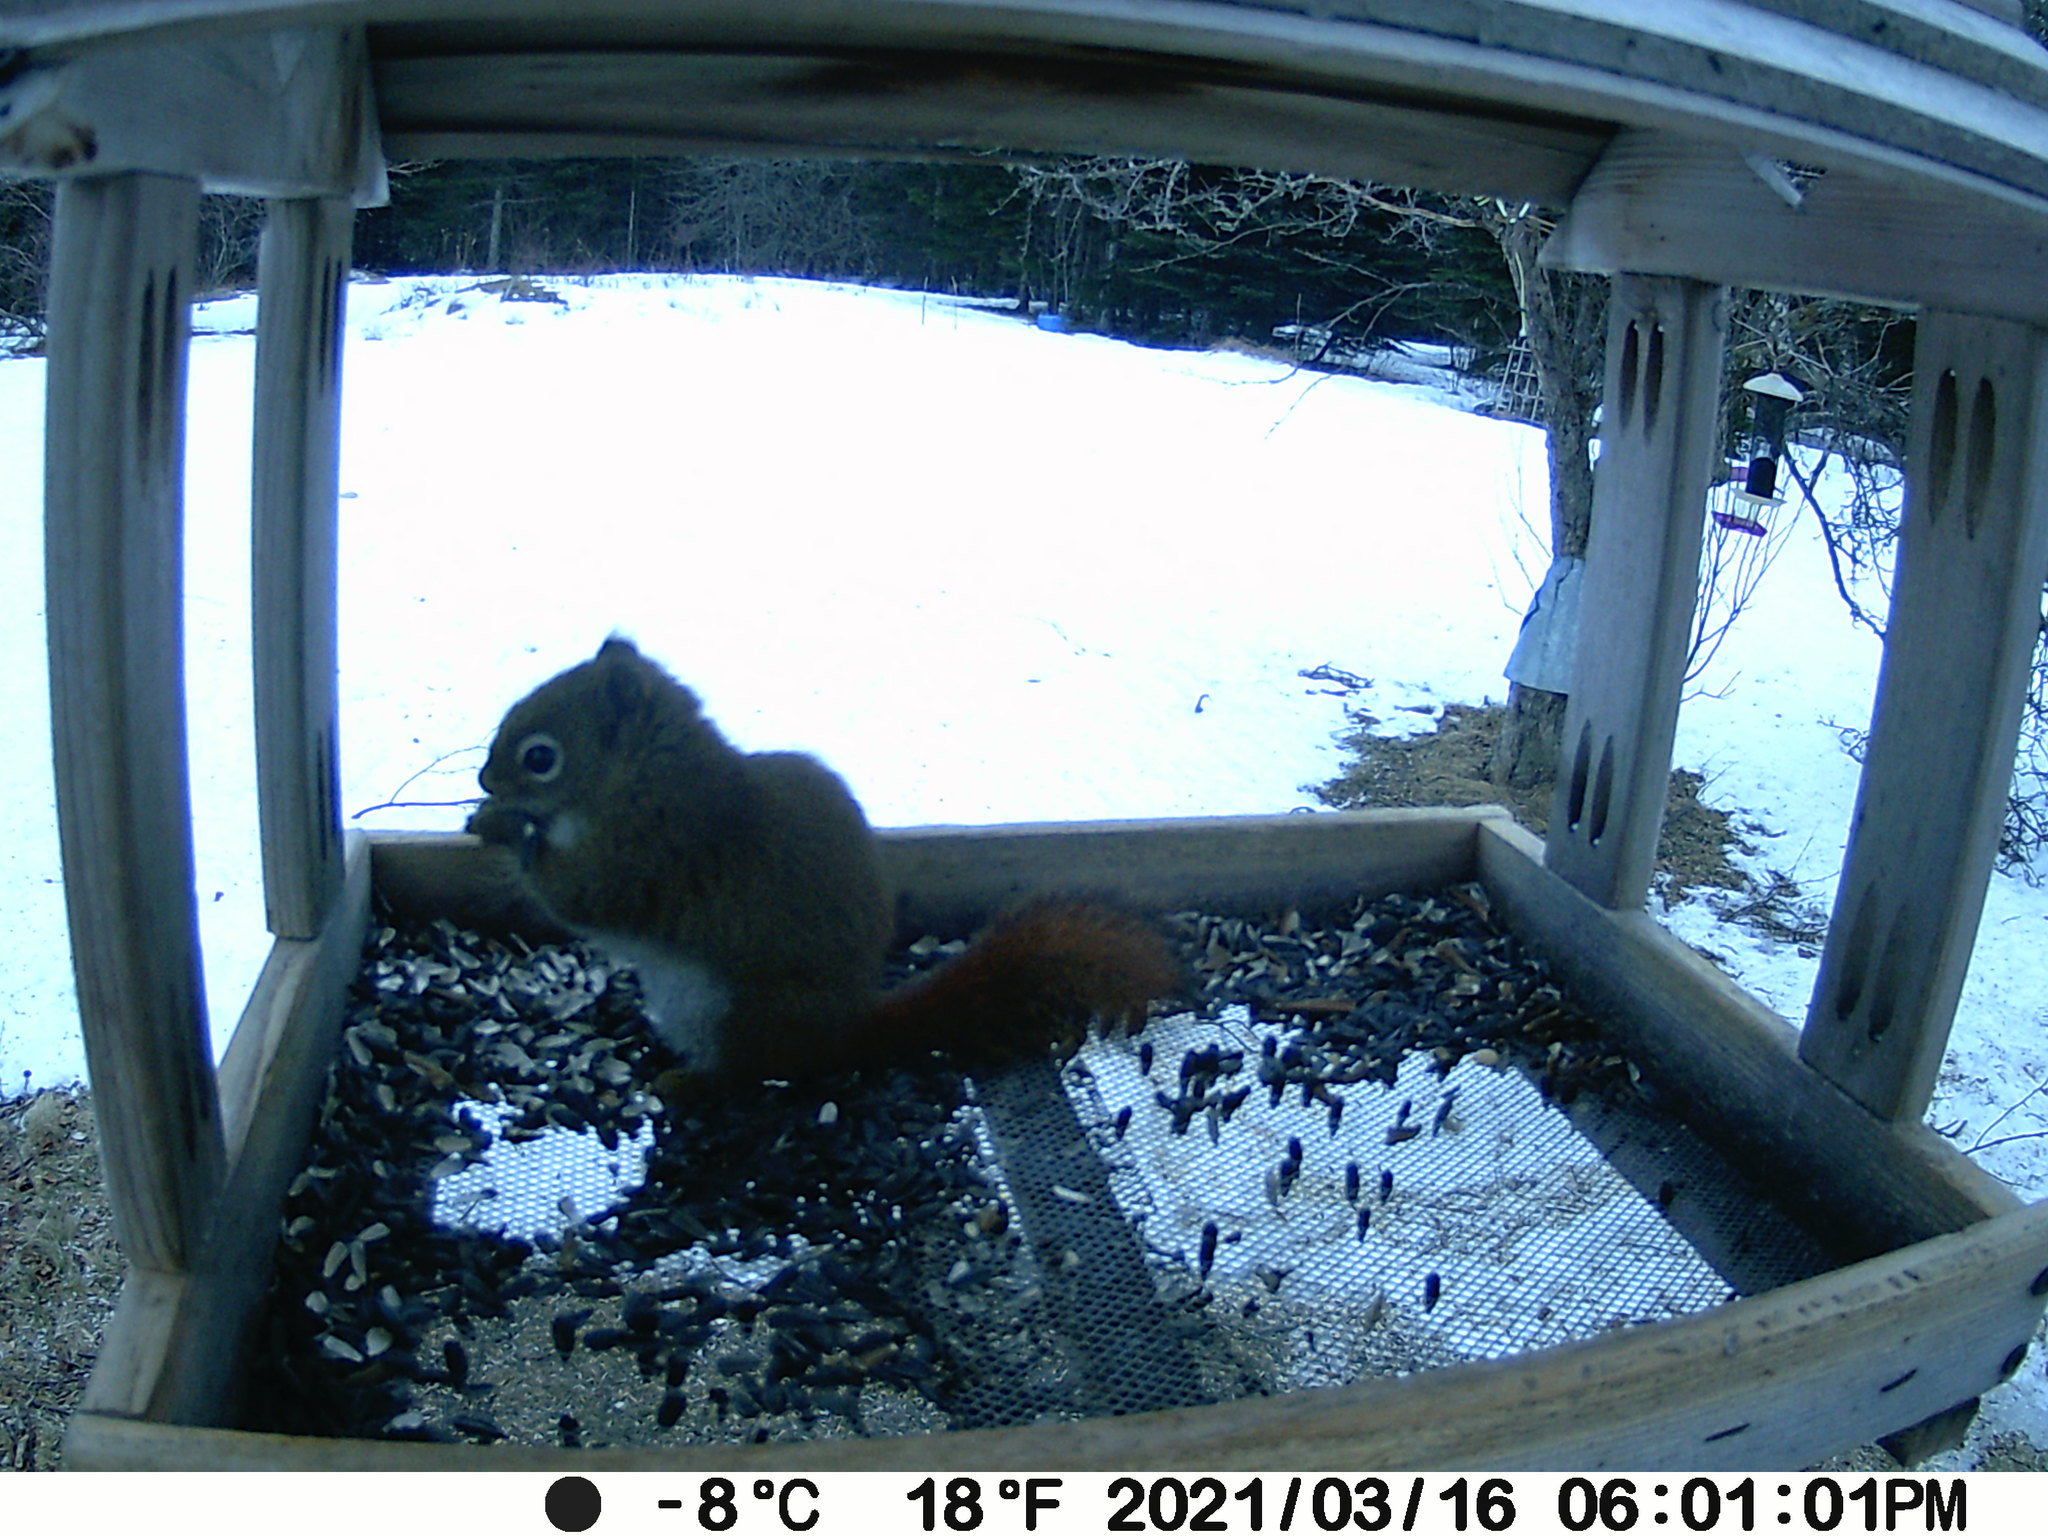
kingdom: Animalia
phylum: Chordata
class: Mammalia
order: Rodentia
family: Sciuridae
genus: Tamiasciurus
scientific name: Tamiasciurus hudsonicus
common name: Red squirrel
